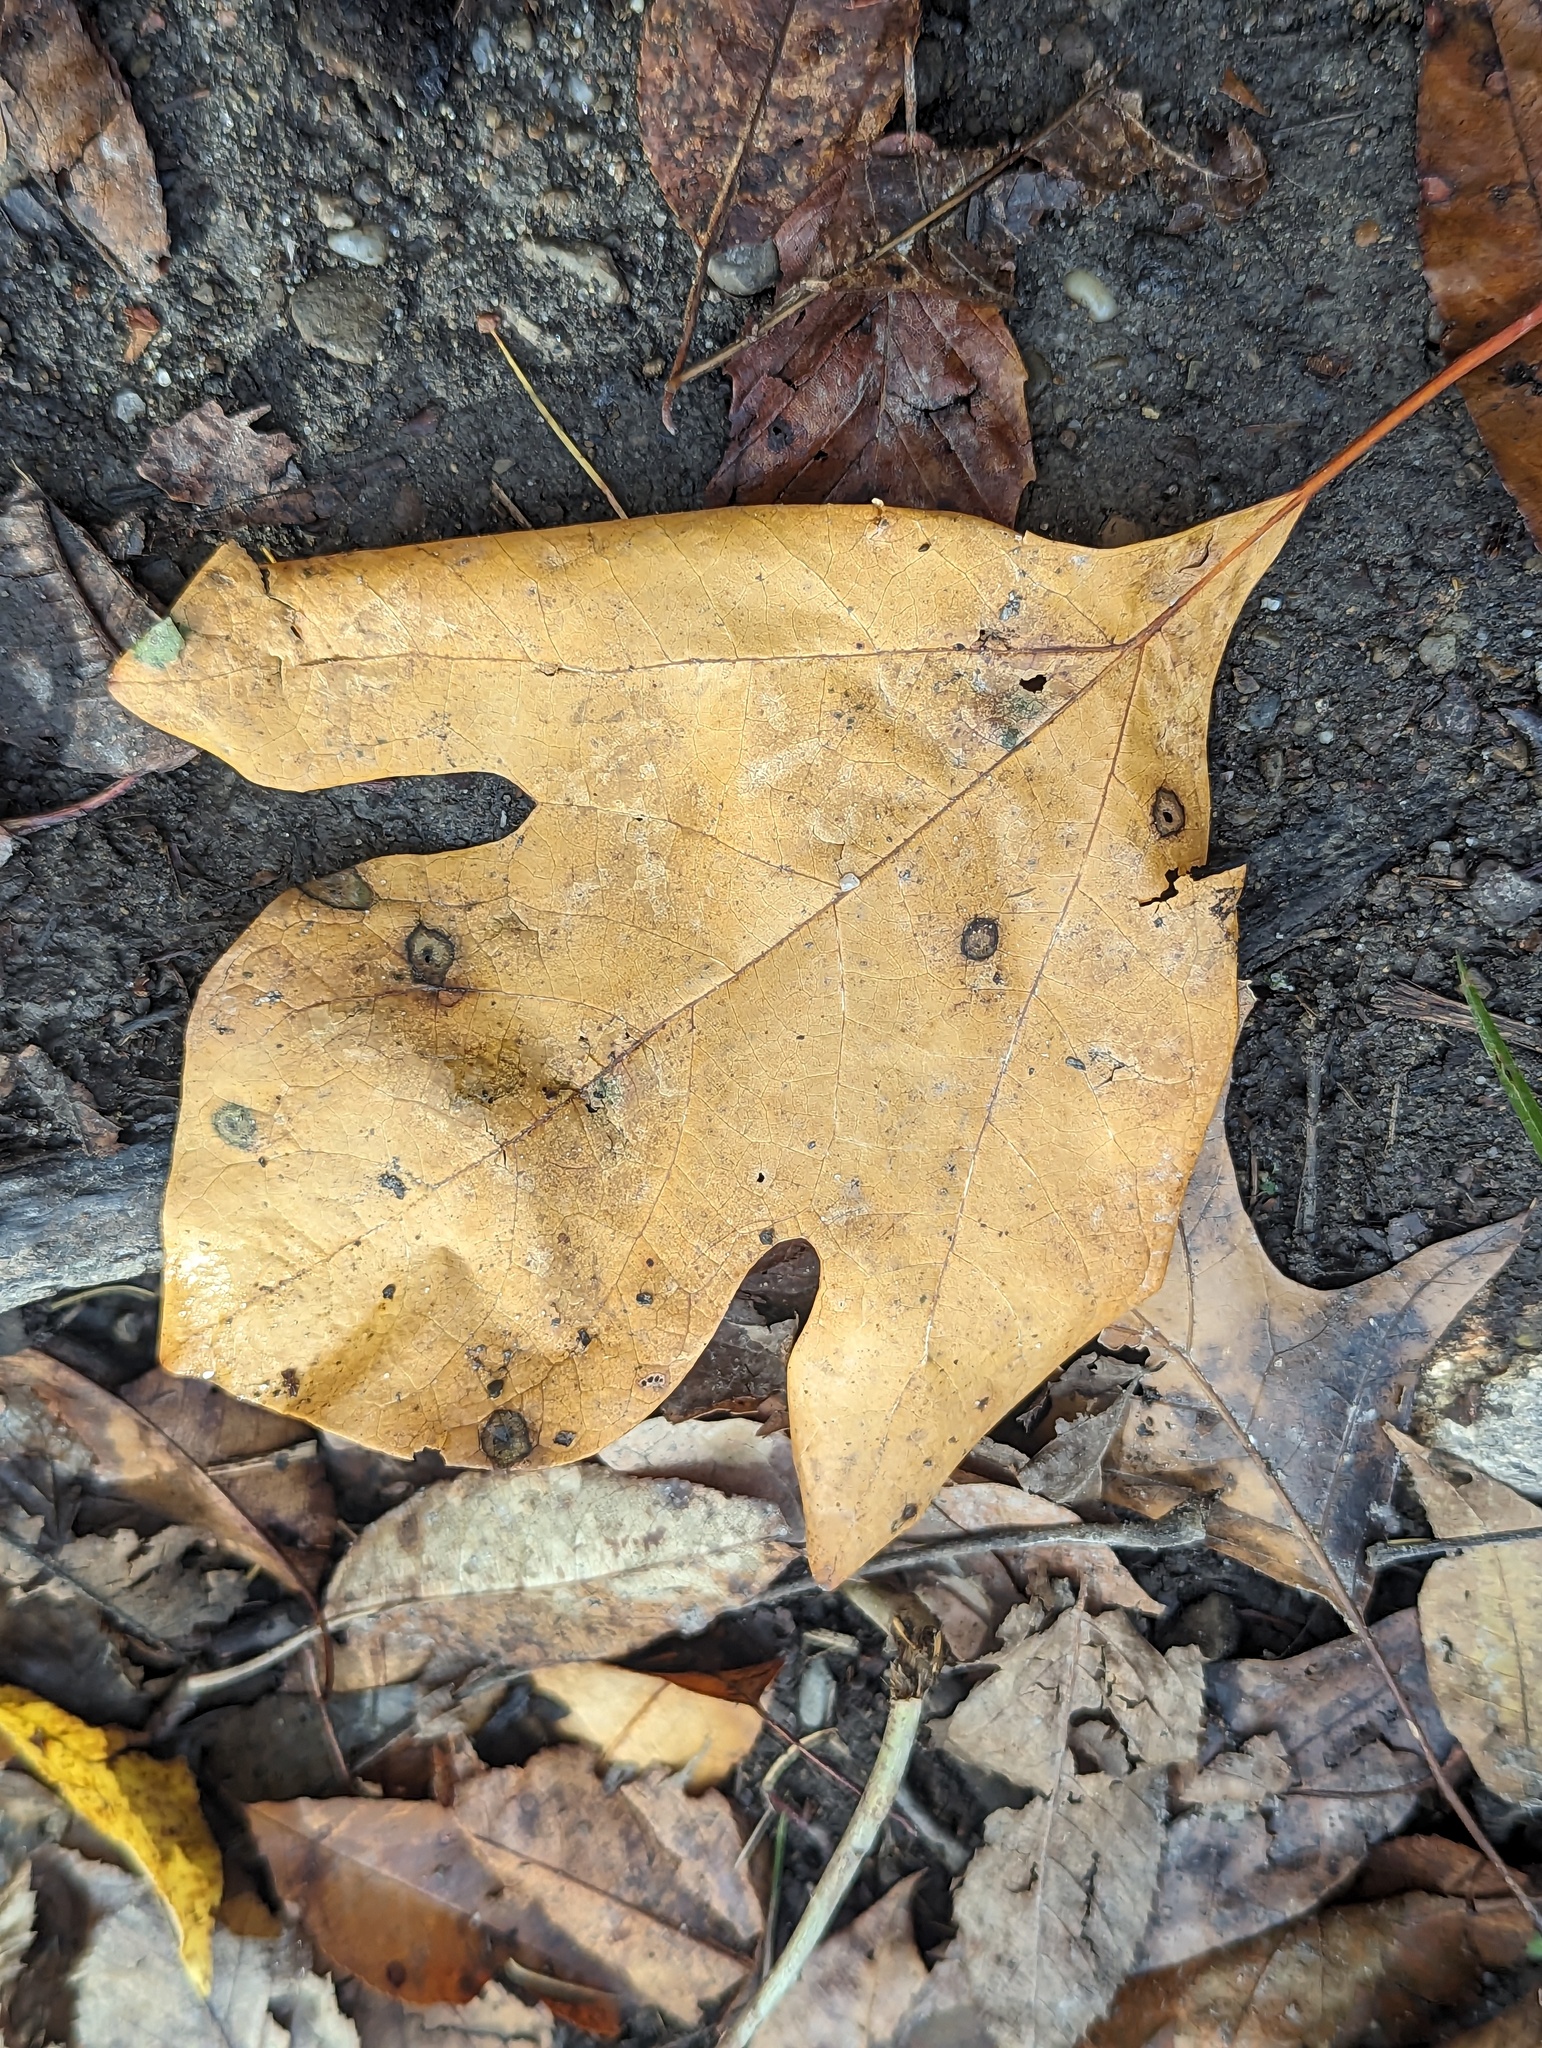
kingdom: Plantae
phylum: Tracheophyta
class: Magnoliopsida
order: Laurales
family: Lauraceae
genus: Sassafras
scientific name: Sassafras albidum
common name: Sassafras
